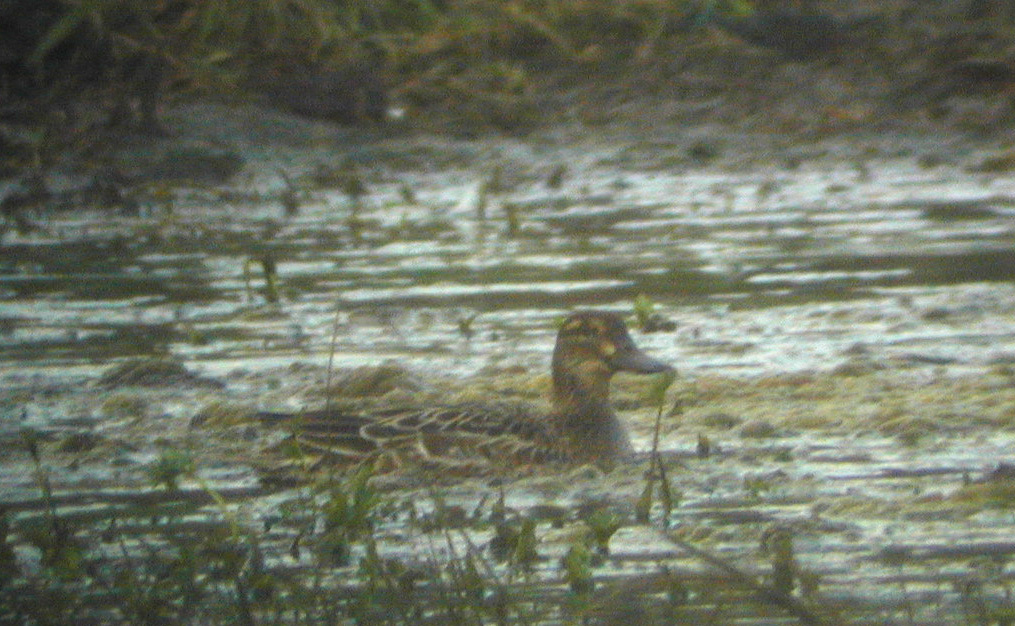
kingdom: Animalia
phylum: Chordata
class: Aves
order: Anseriformes
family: Anatidae
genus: Spatula
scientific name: Spatula querquedula
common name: Garganey
